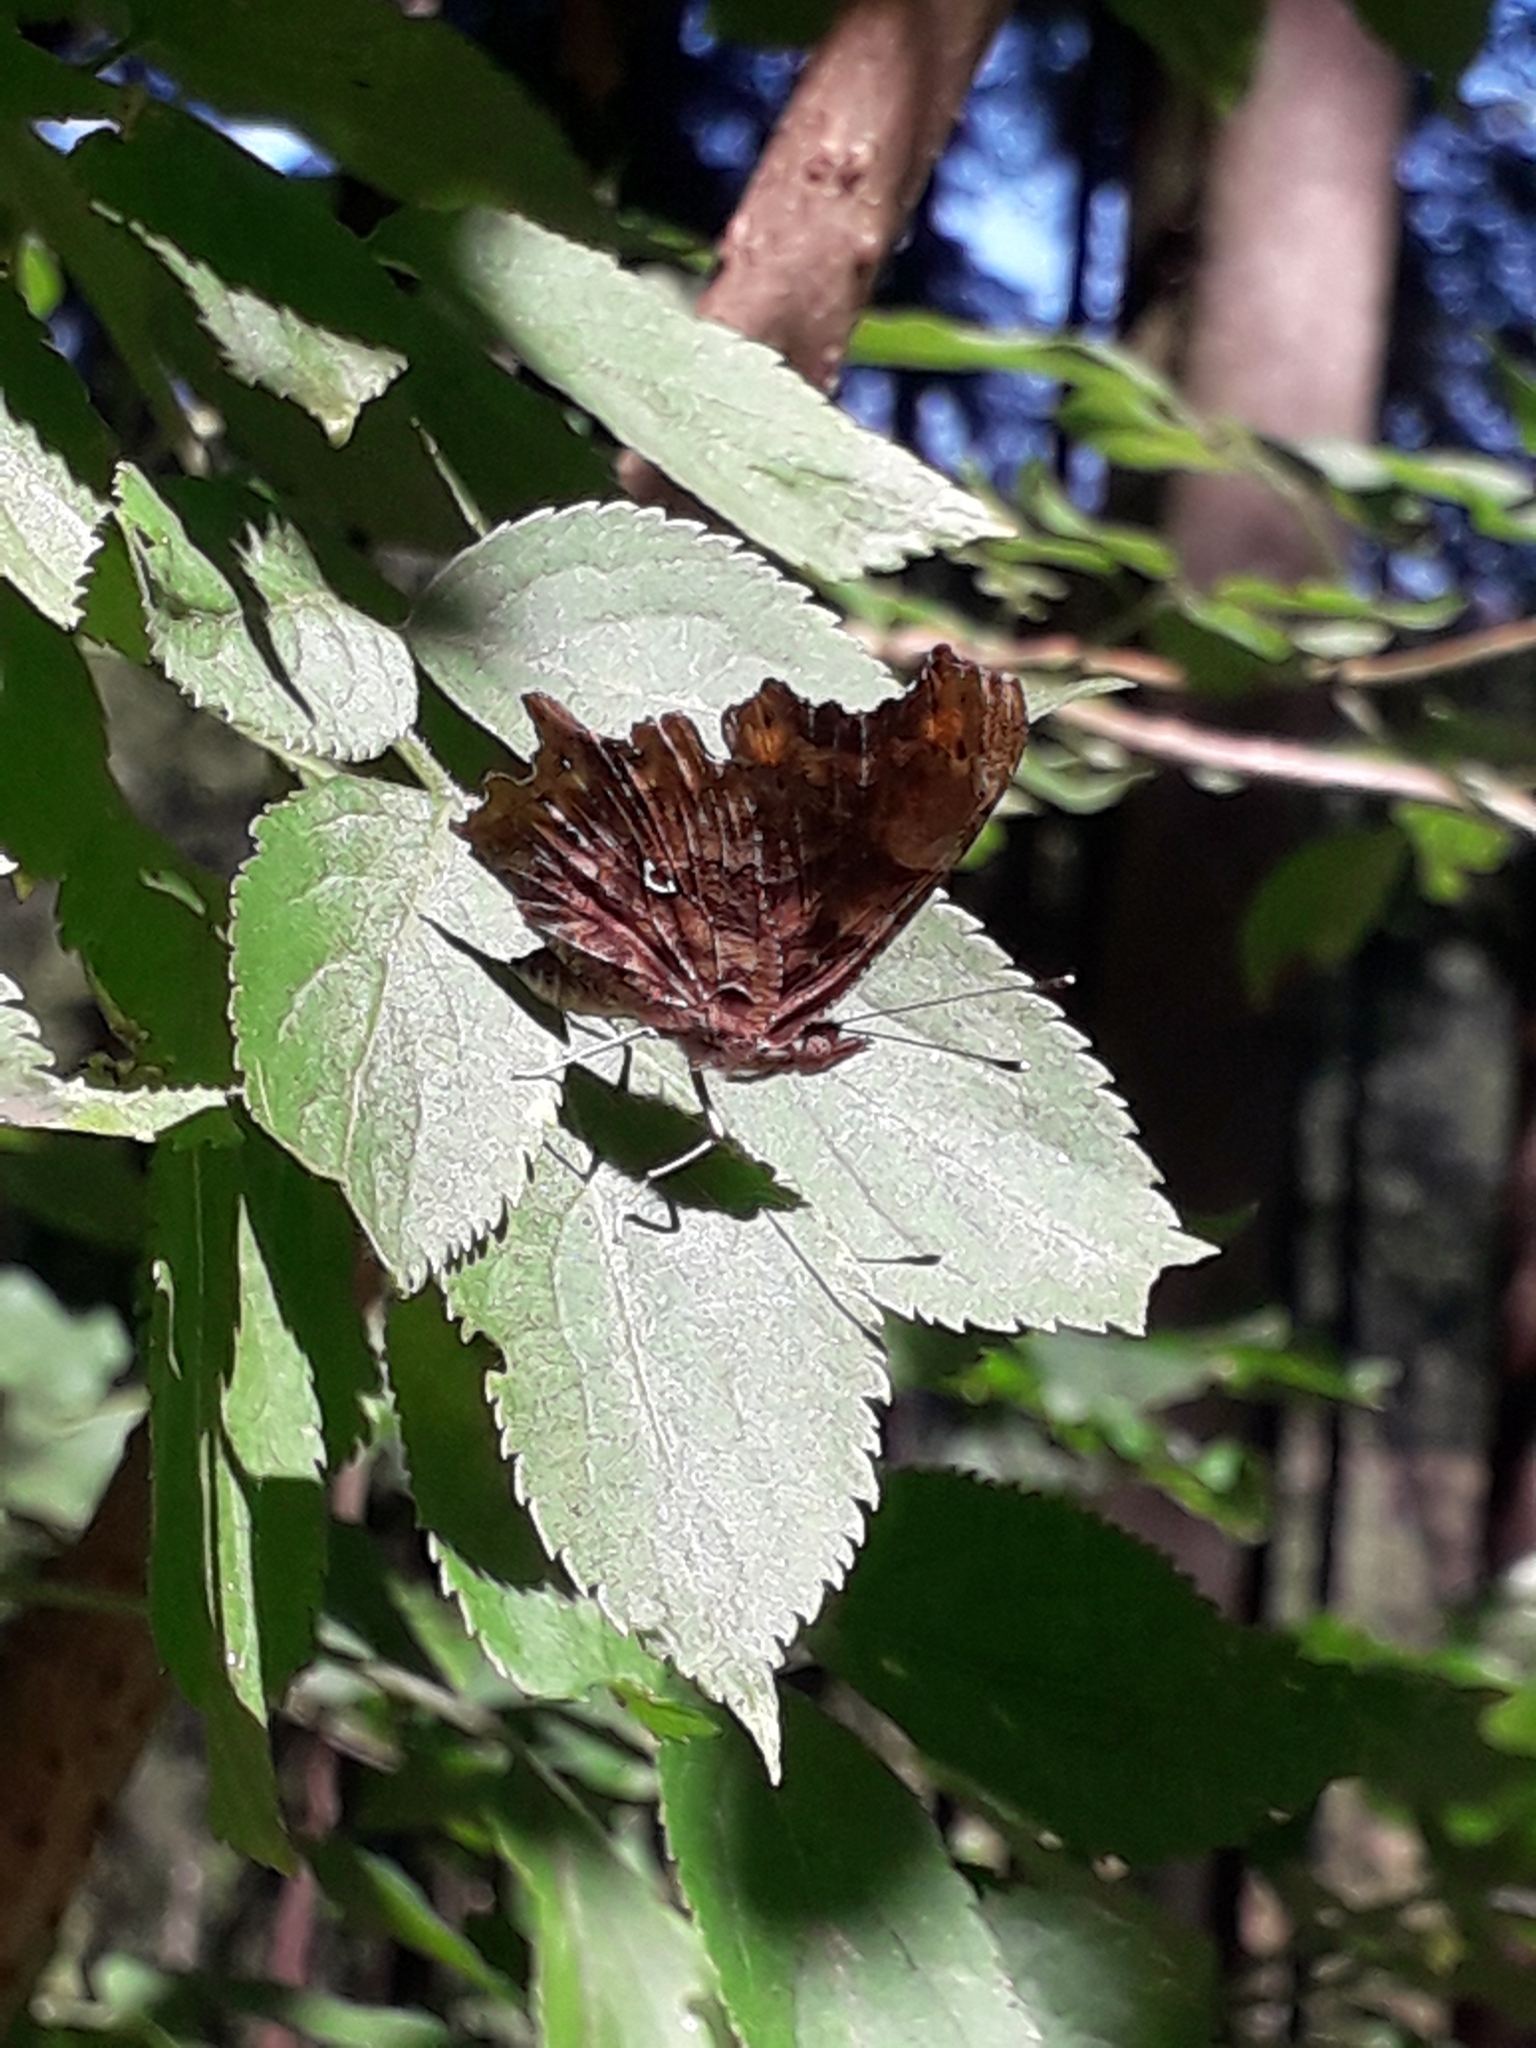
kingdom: Animalia
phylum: Arthropoda
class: Insecta
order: Lepidoptera
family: Nymphalidae
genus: Polygonia
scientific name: Polygonia c-album
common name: Comma
